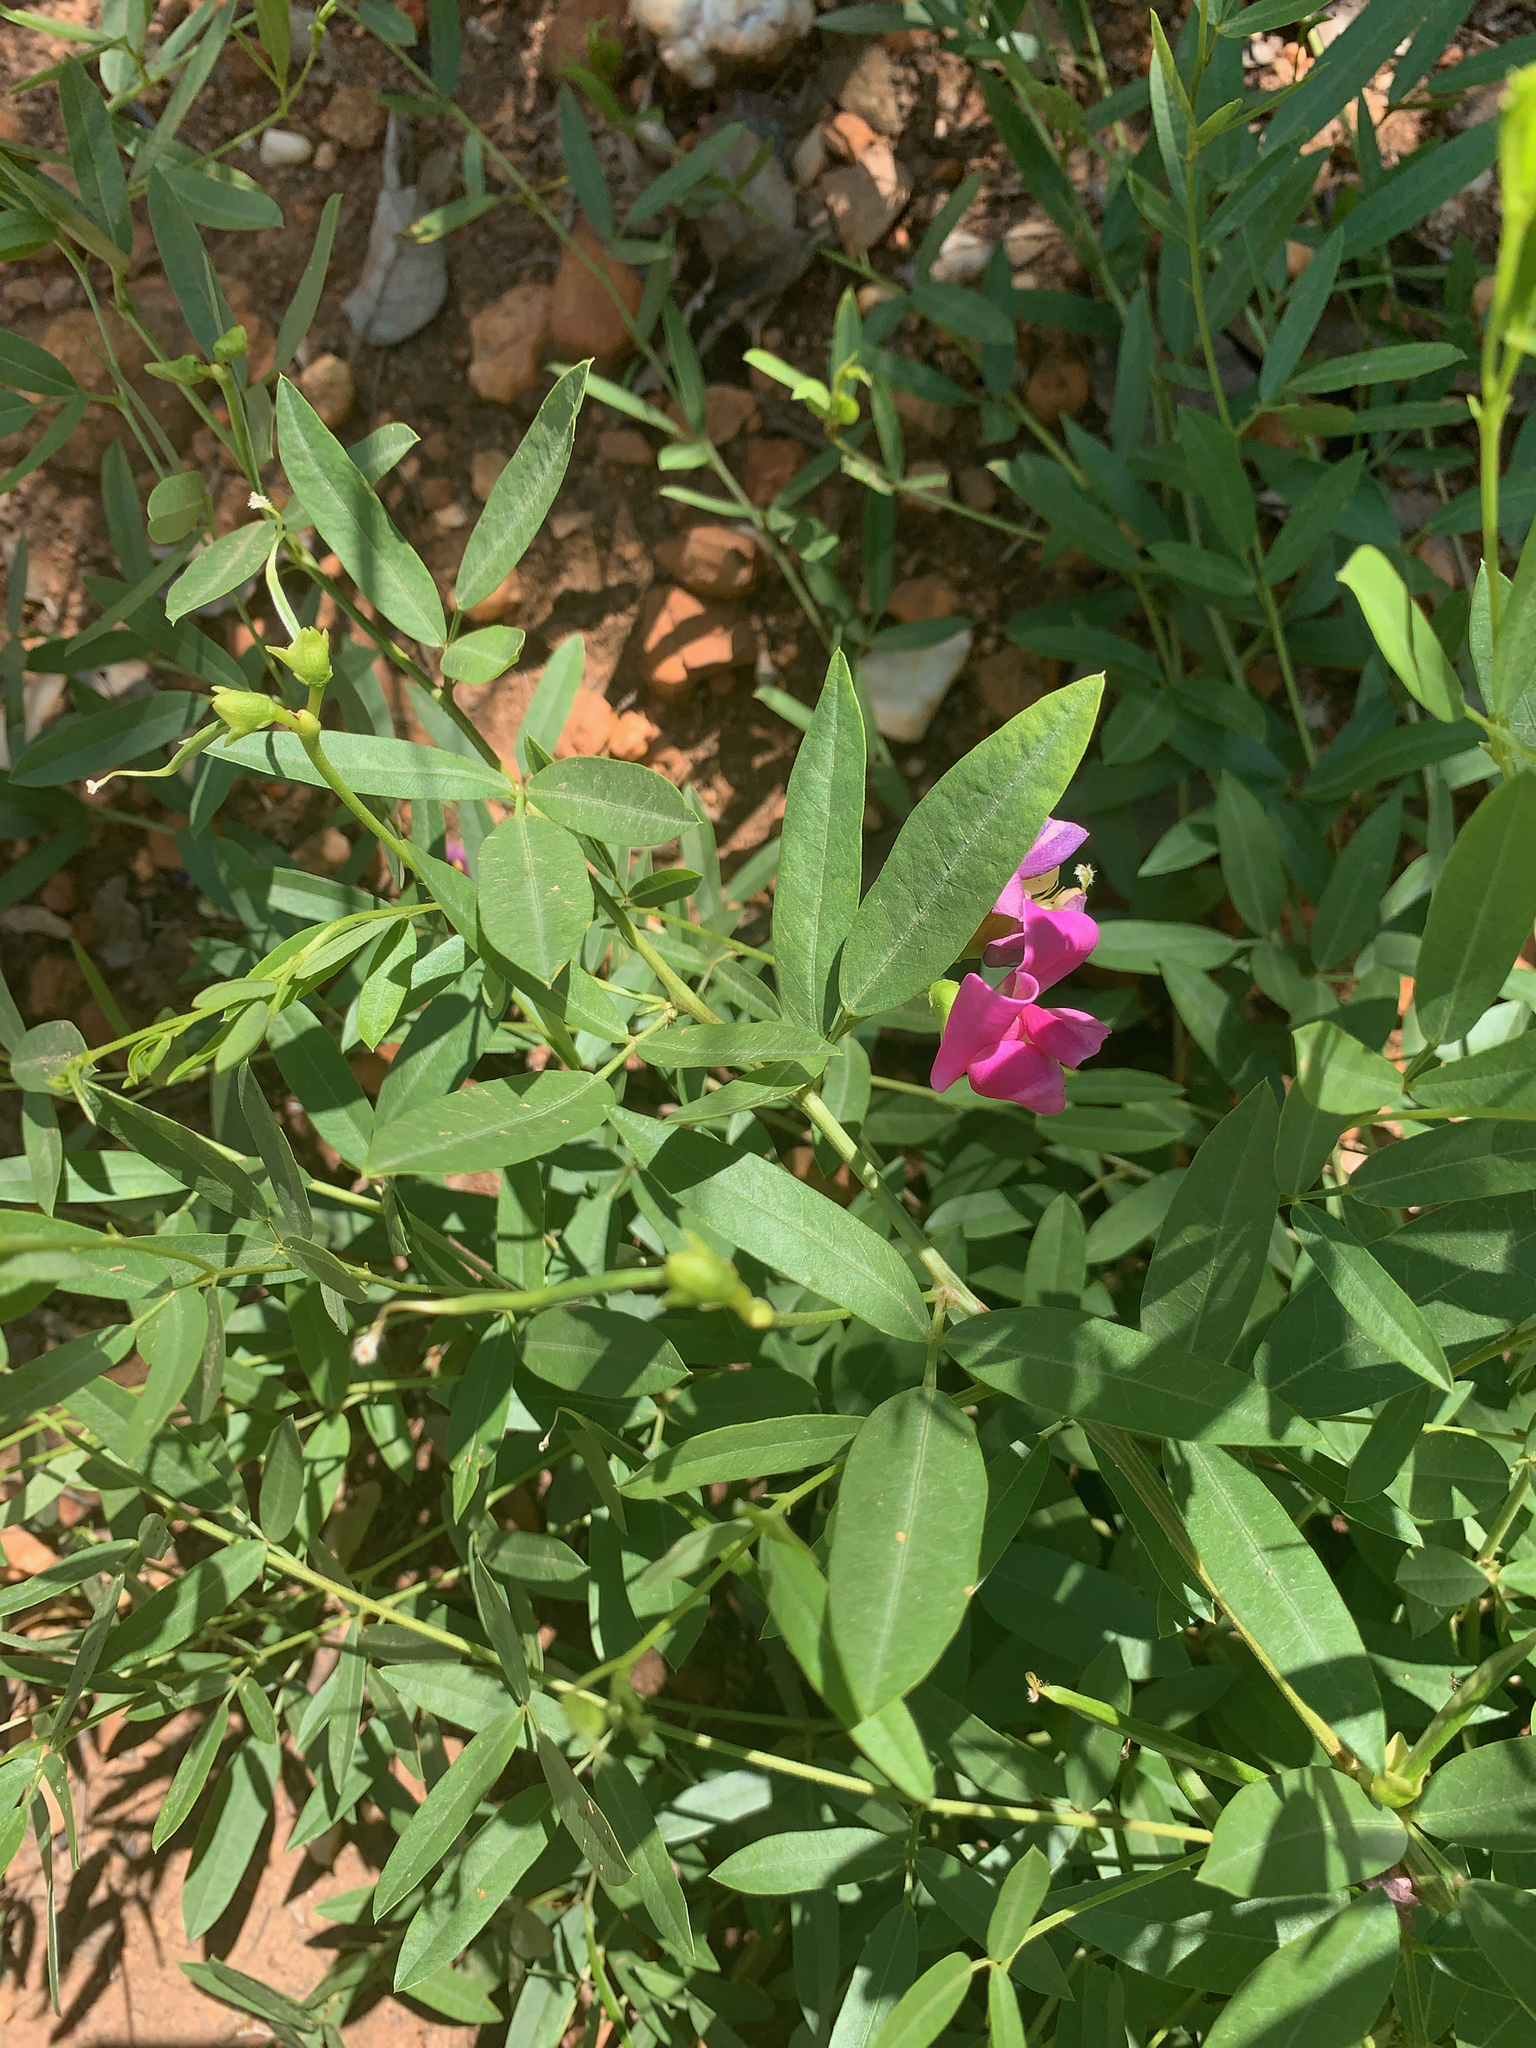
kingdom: Plantae
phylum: Tracheophyta
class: Magnoliopsida
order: Fabales
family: Fabaceae
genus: Sphenostylis
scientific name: Sphenostylis angustifolia
